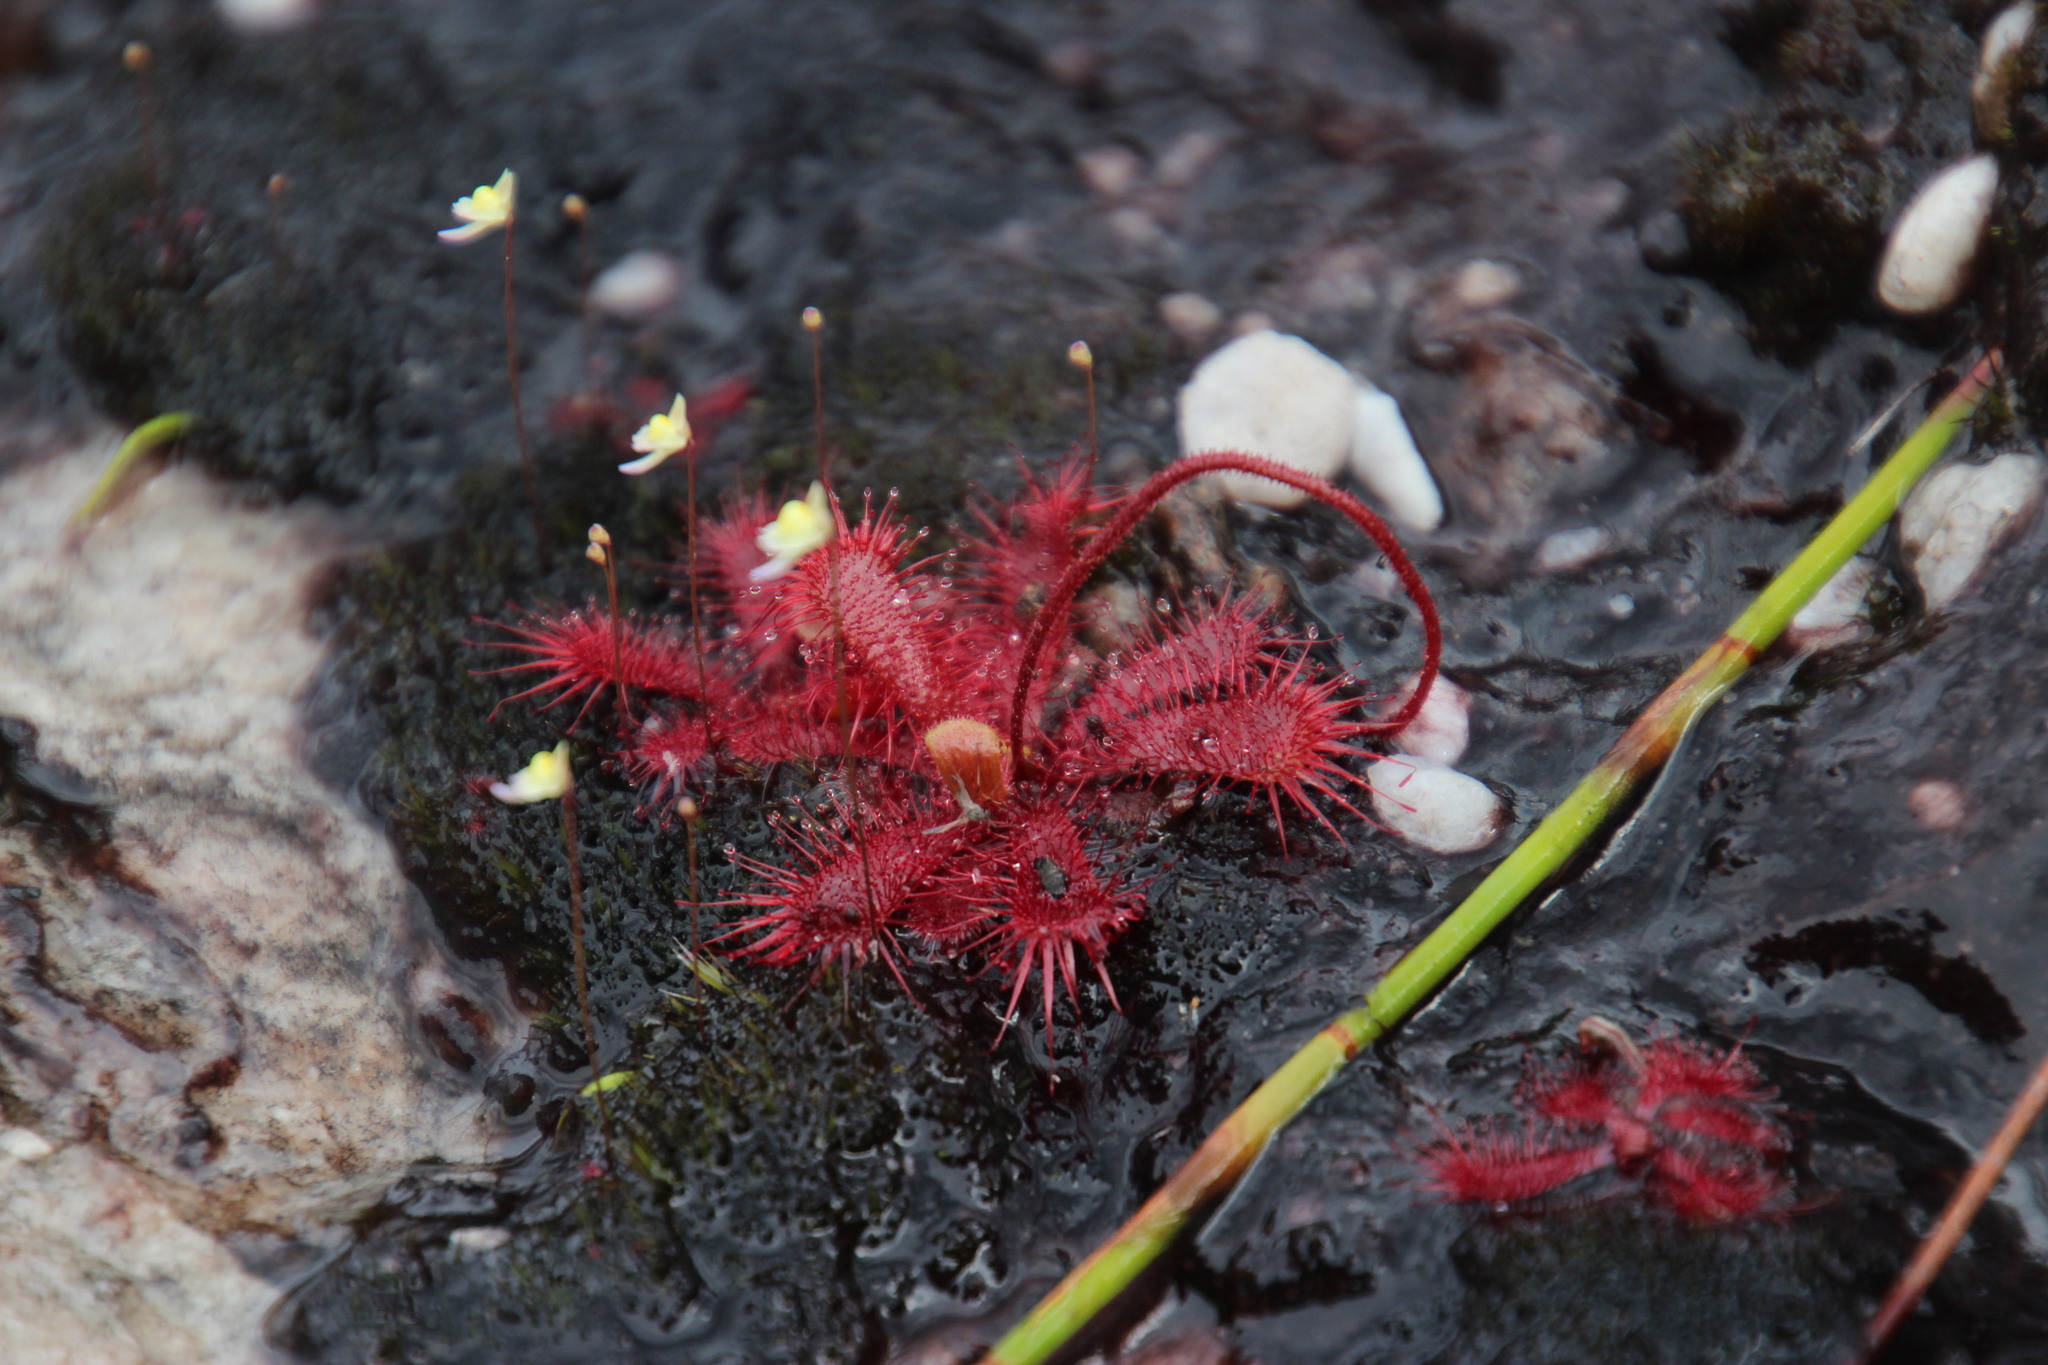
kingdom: Plantae
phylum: Tracheophyta
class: Magnoliopsida
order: Caryophyllales
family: Droseraceae
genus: Drosera
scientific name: Drosera trinervia
